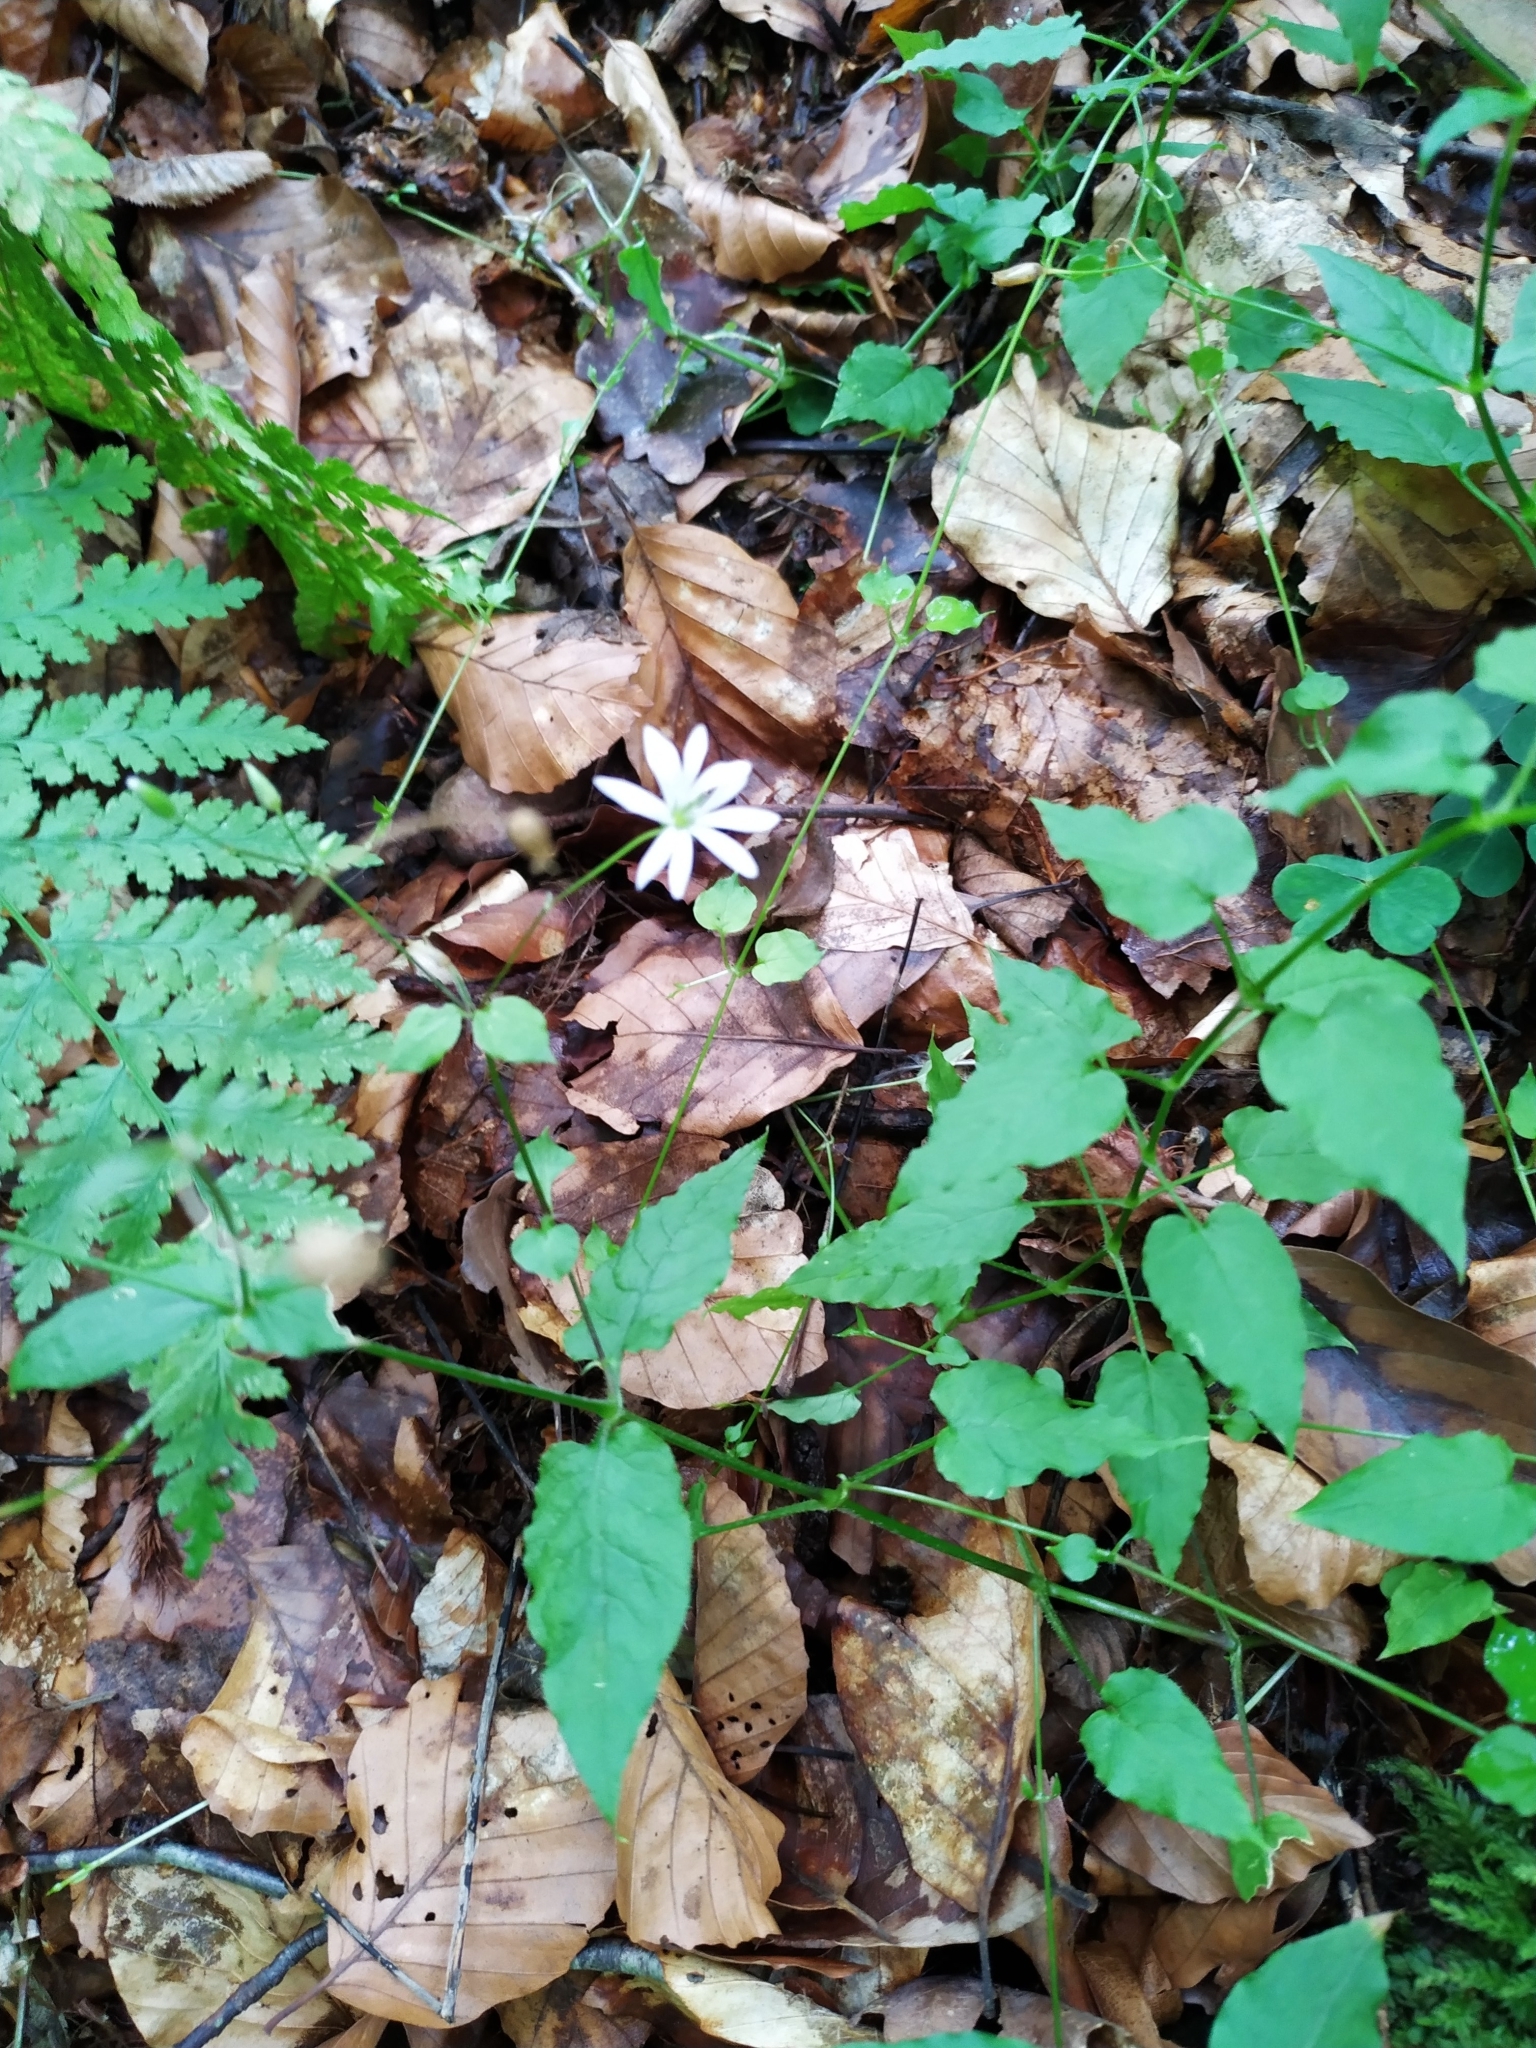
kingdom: Plantae
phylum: Tracheophyta
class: Magnoliopsida
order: Caryophyllales
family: Caryophyllaceae
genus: Stellaria
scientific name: Stellaria nemorum
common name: Wood stitchwort
